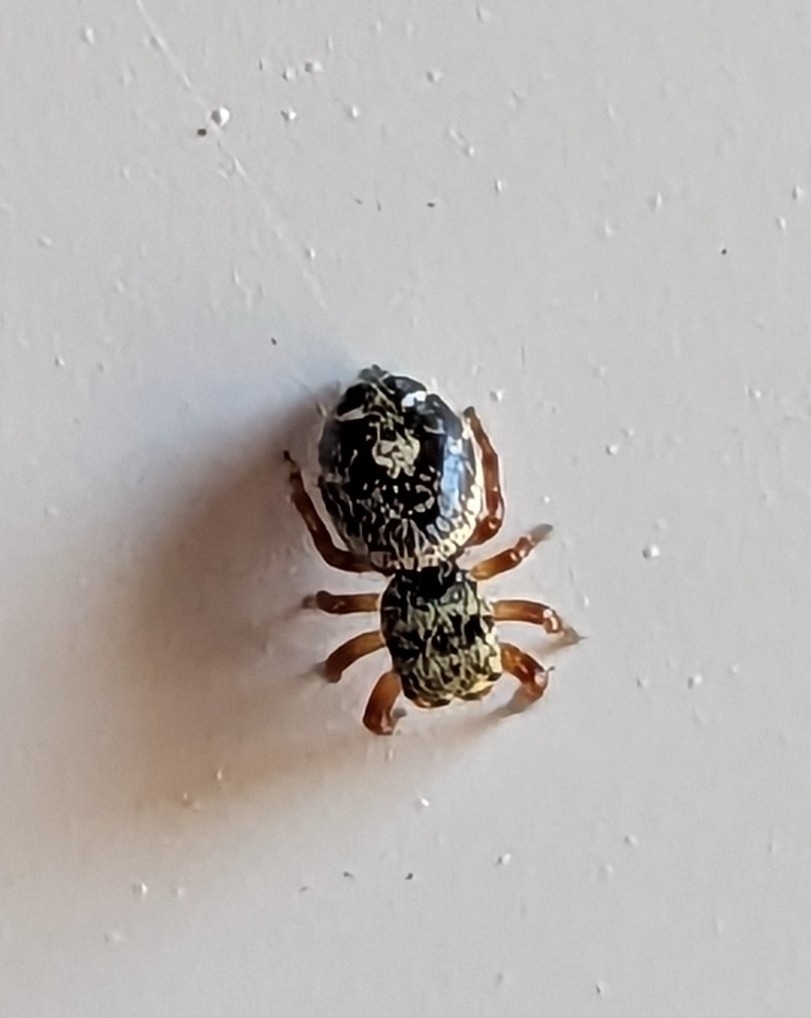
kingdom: Animalia
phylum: Arthropoda
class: Arachnida
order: Araneae
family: Salticidae
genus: Phidippus
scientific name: Phidippus audax
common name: Bold jumper
